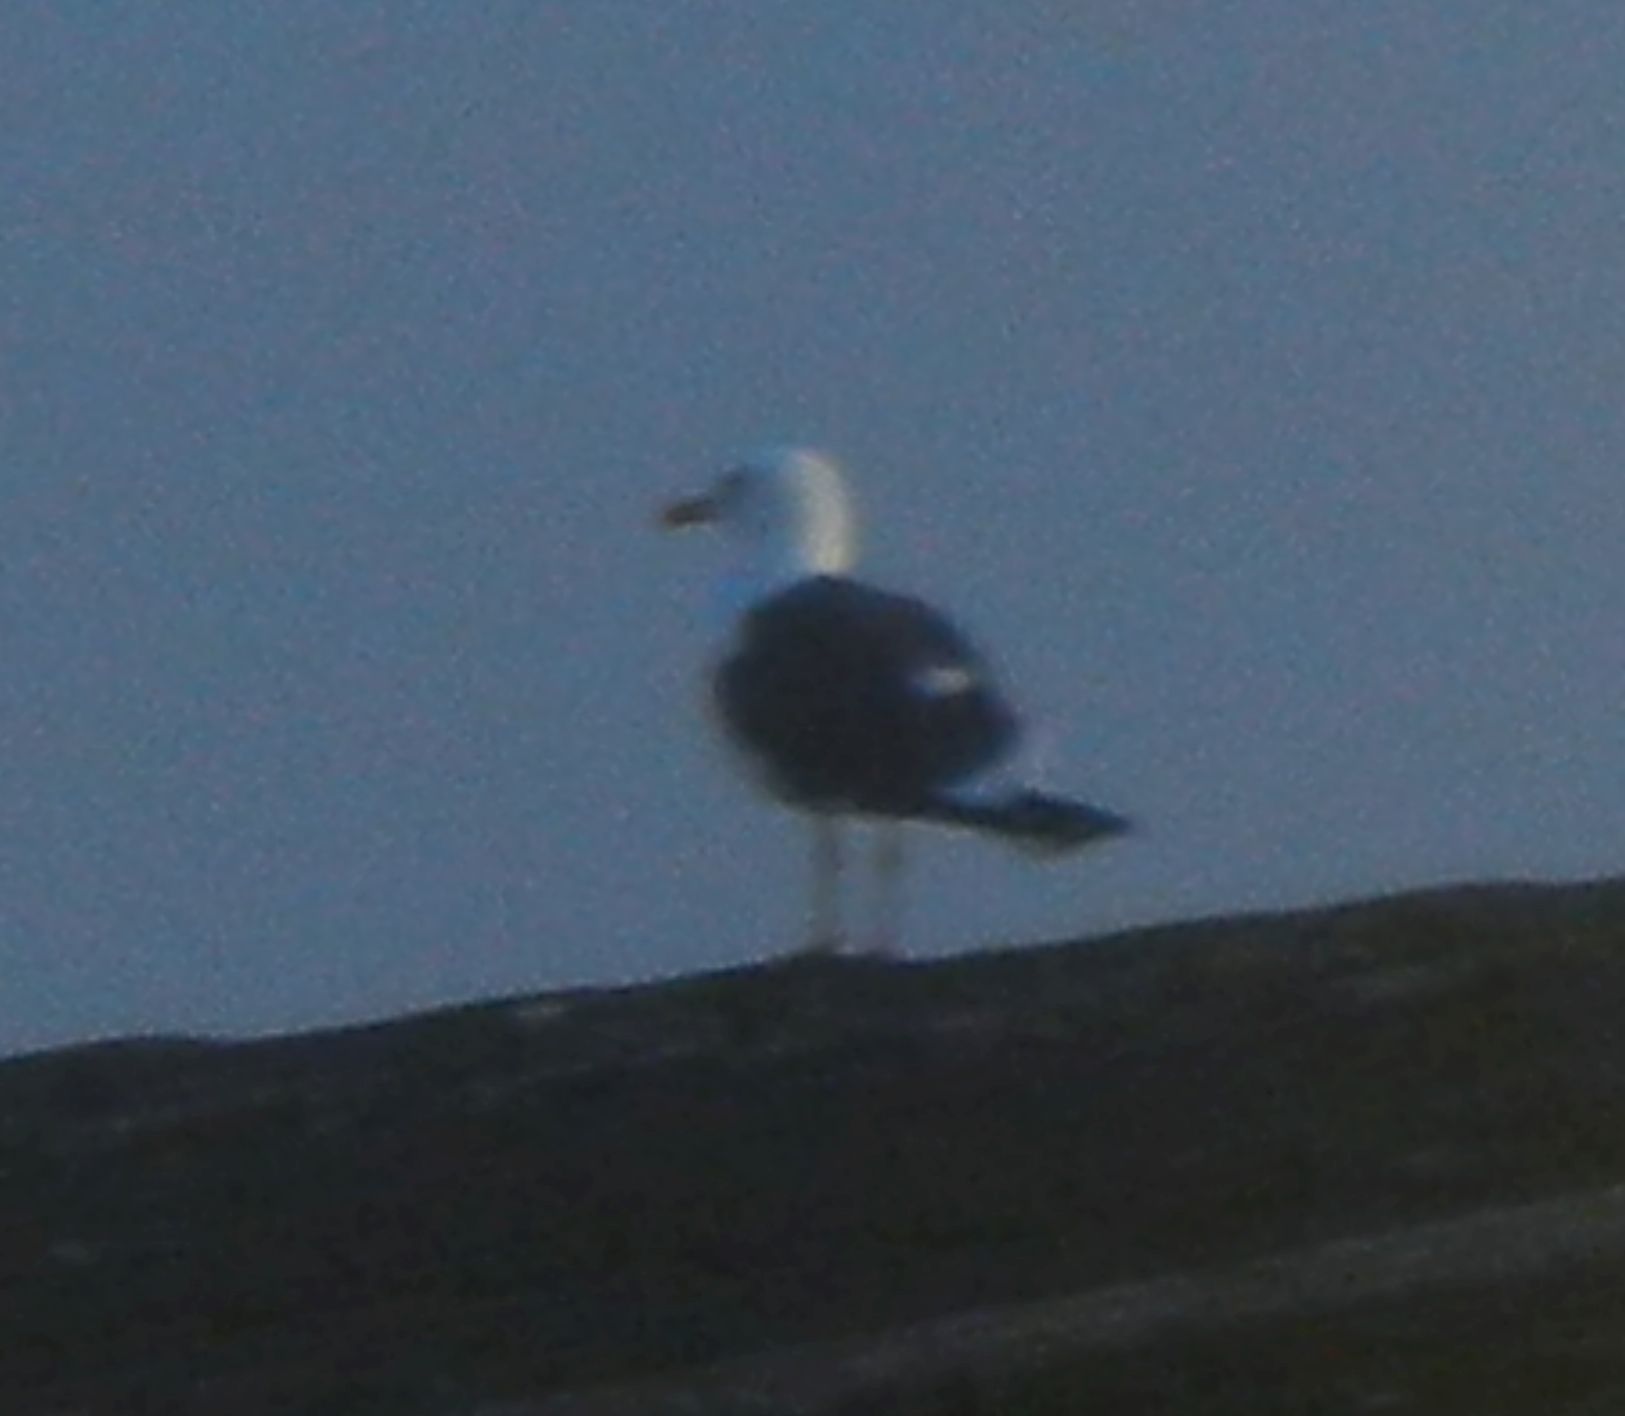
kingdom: Animalia
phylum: Chordata
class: Aves
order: Charadriiformes
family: Laridae
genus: Larus
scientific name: Larus fuscus
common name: Lesser black-backed gull
